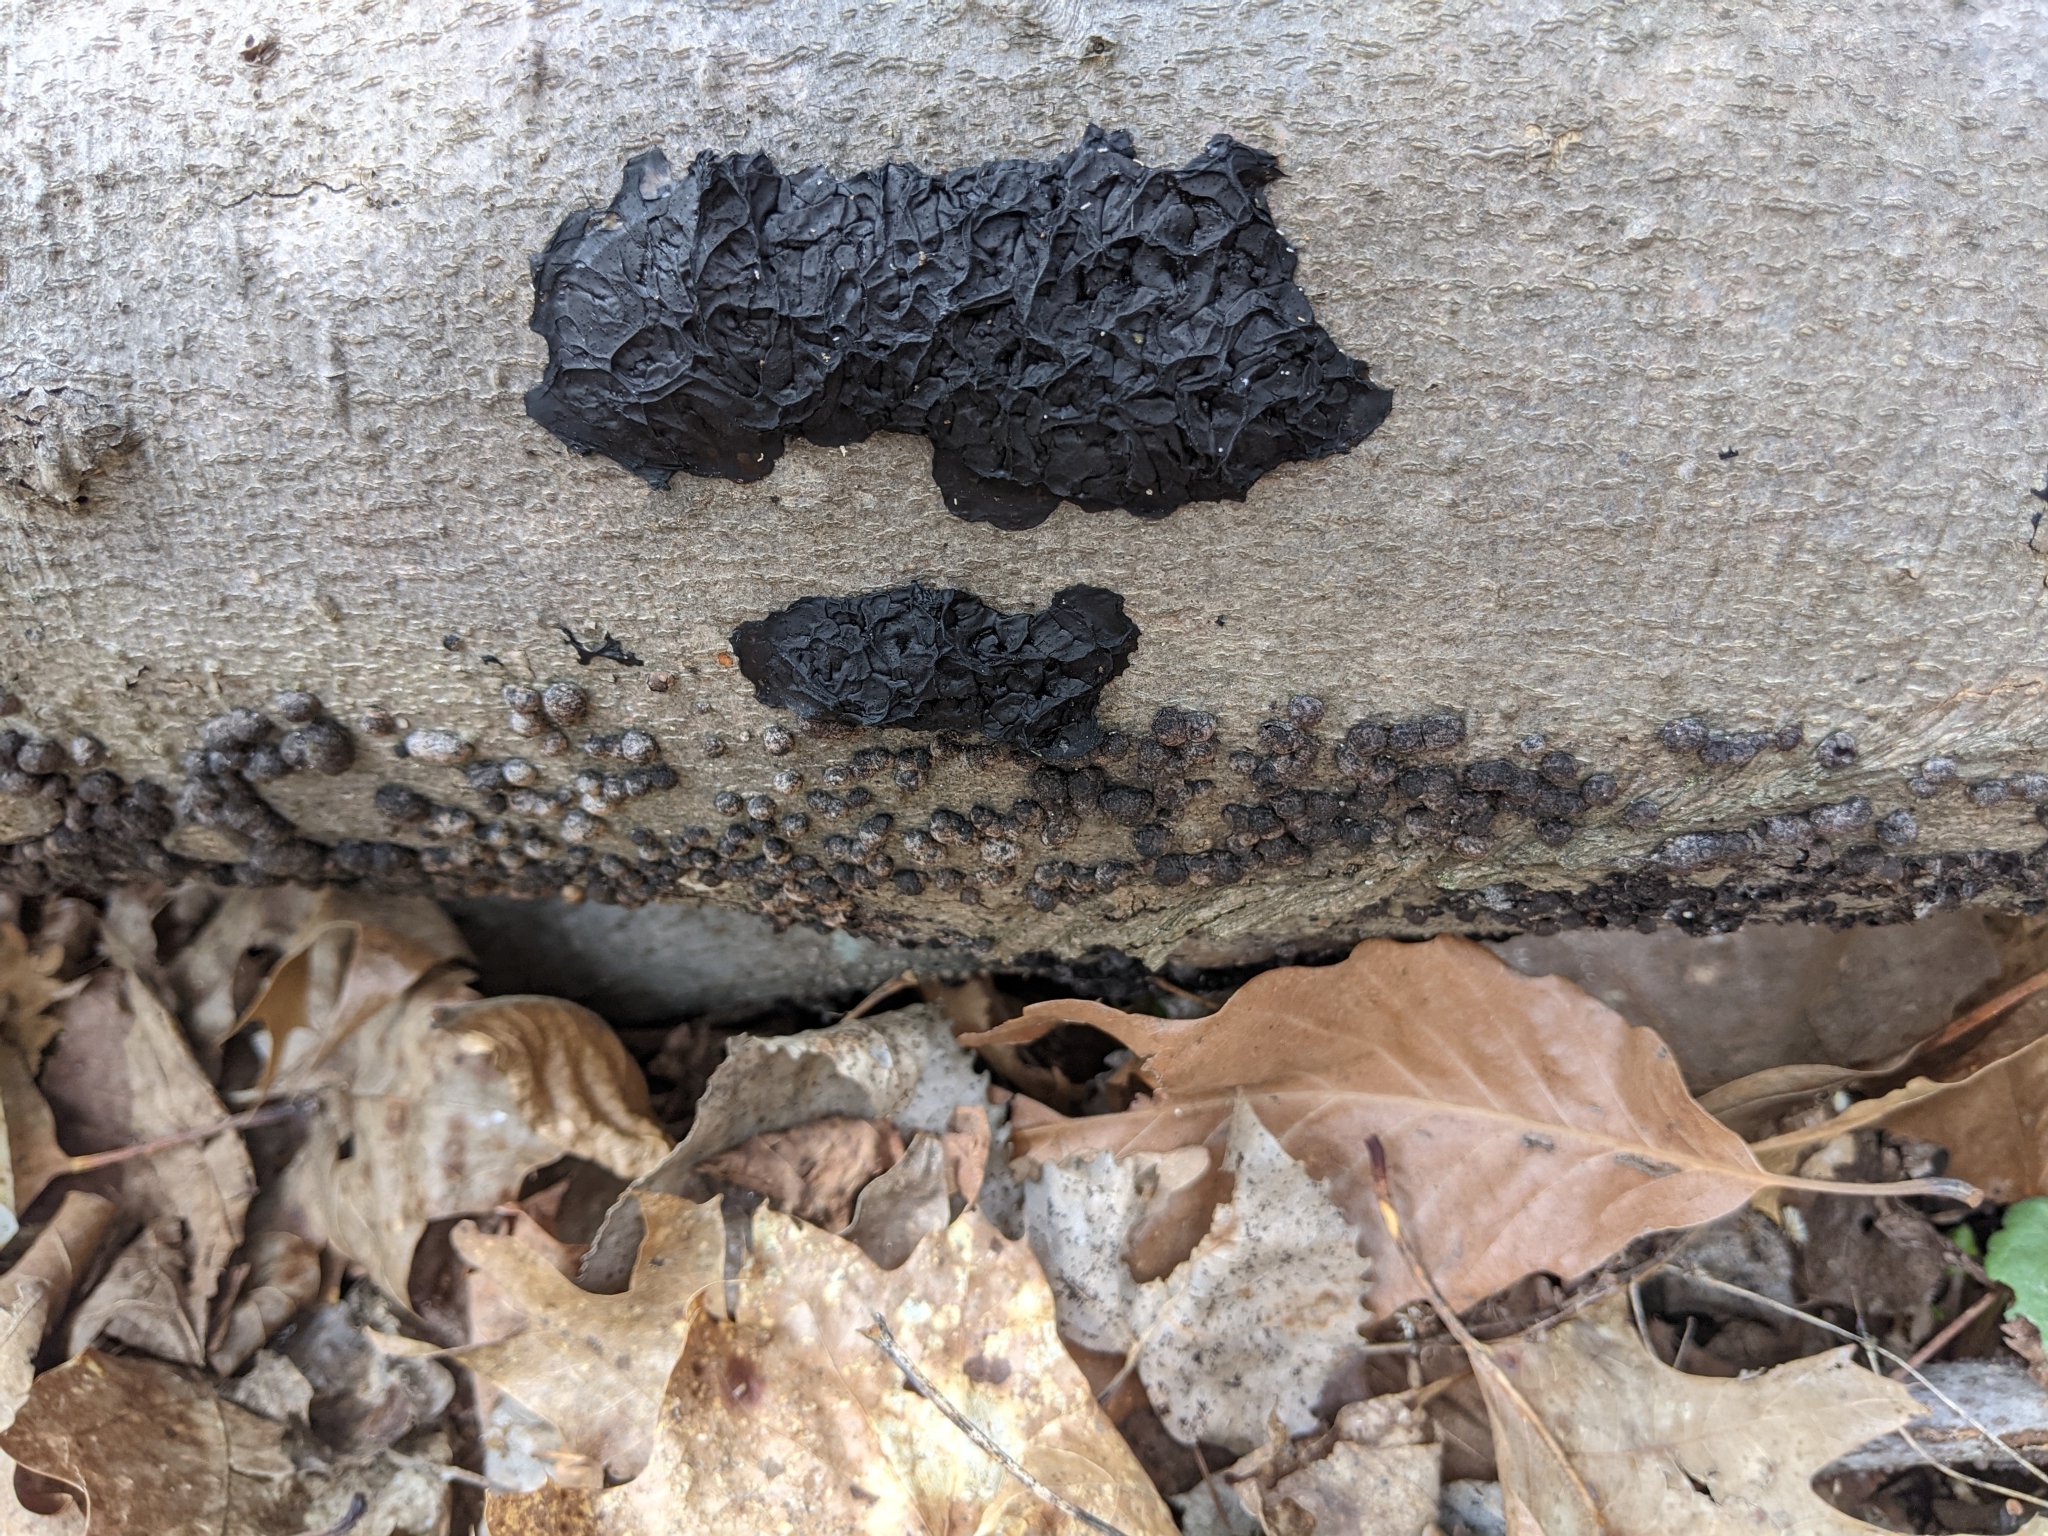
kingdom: Fungi
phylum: Basidiomycota
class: Agaricomycetes
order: Auriculariales
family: Auriculariaceae
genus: Exidia
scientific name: Exidia glandulosa
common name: Witches' butter
